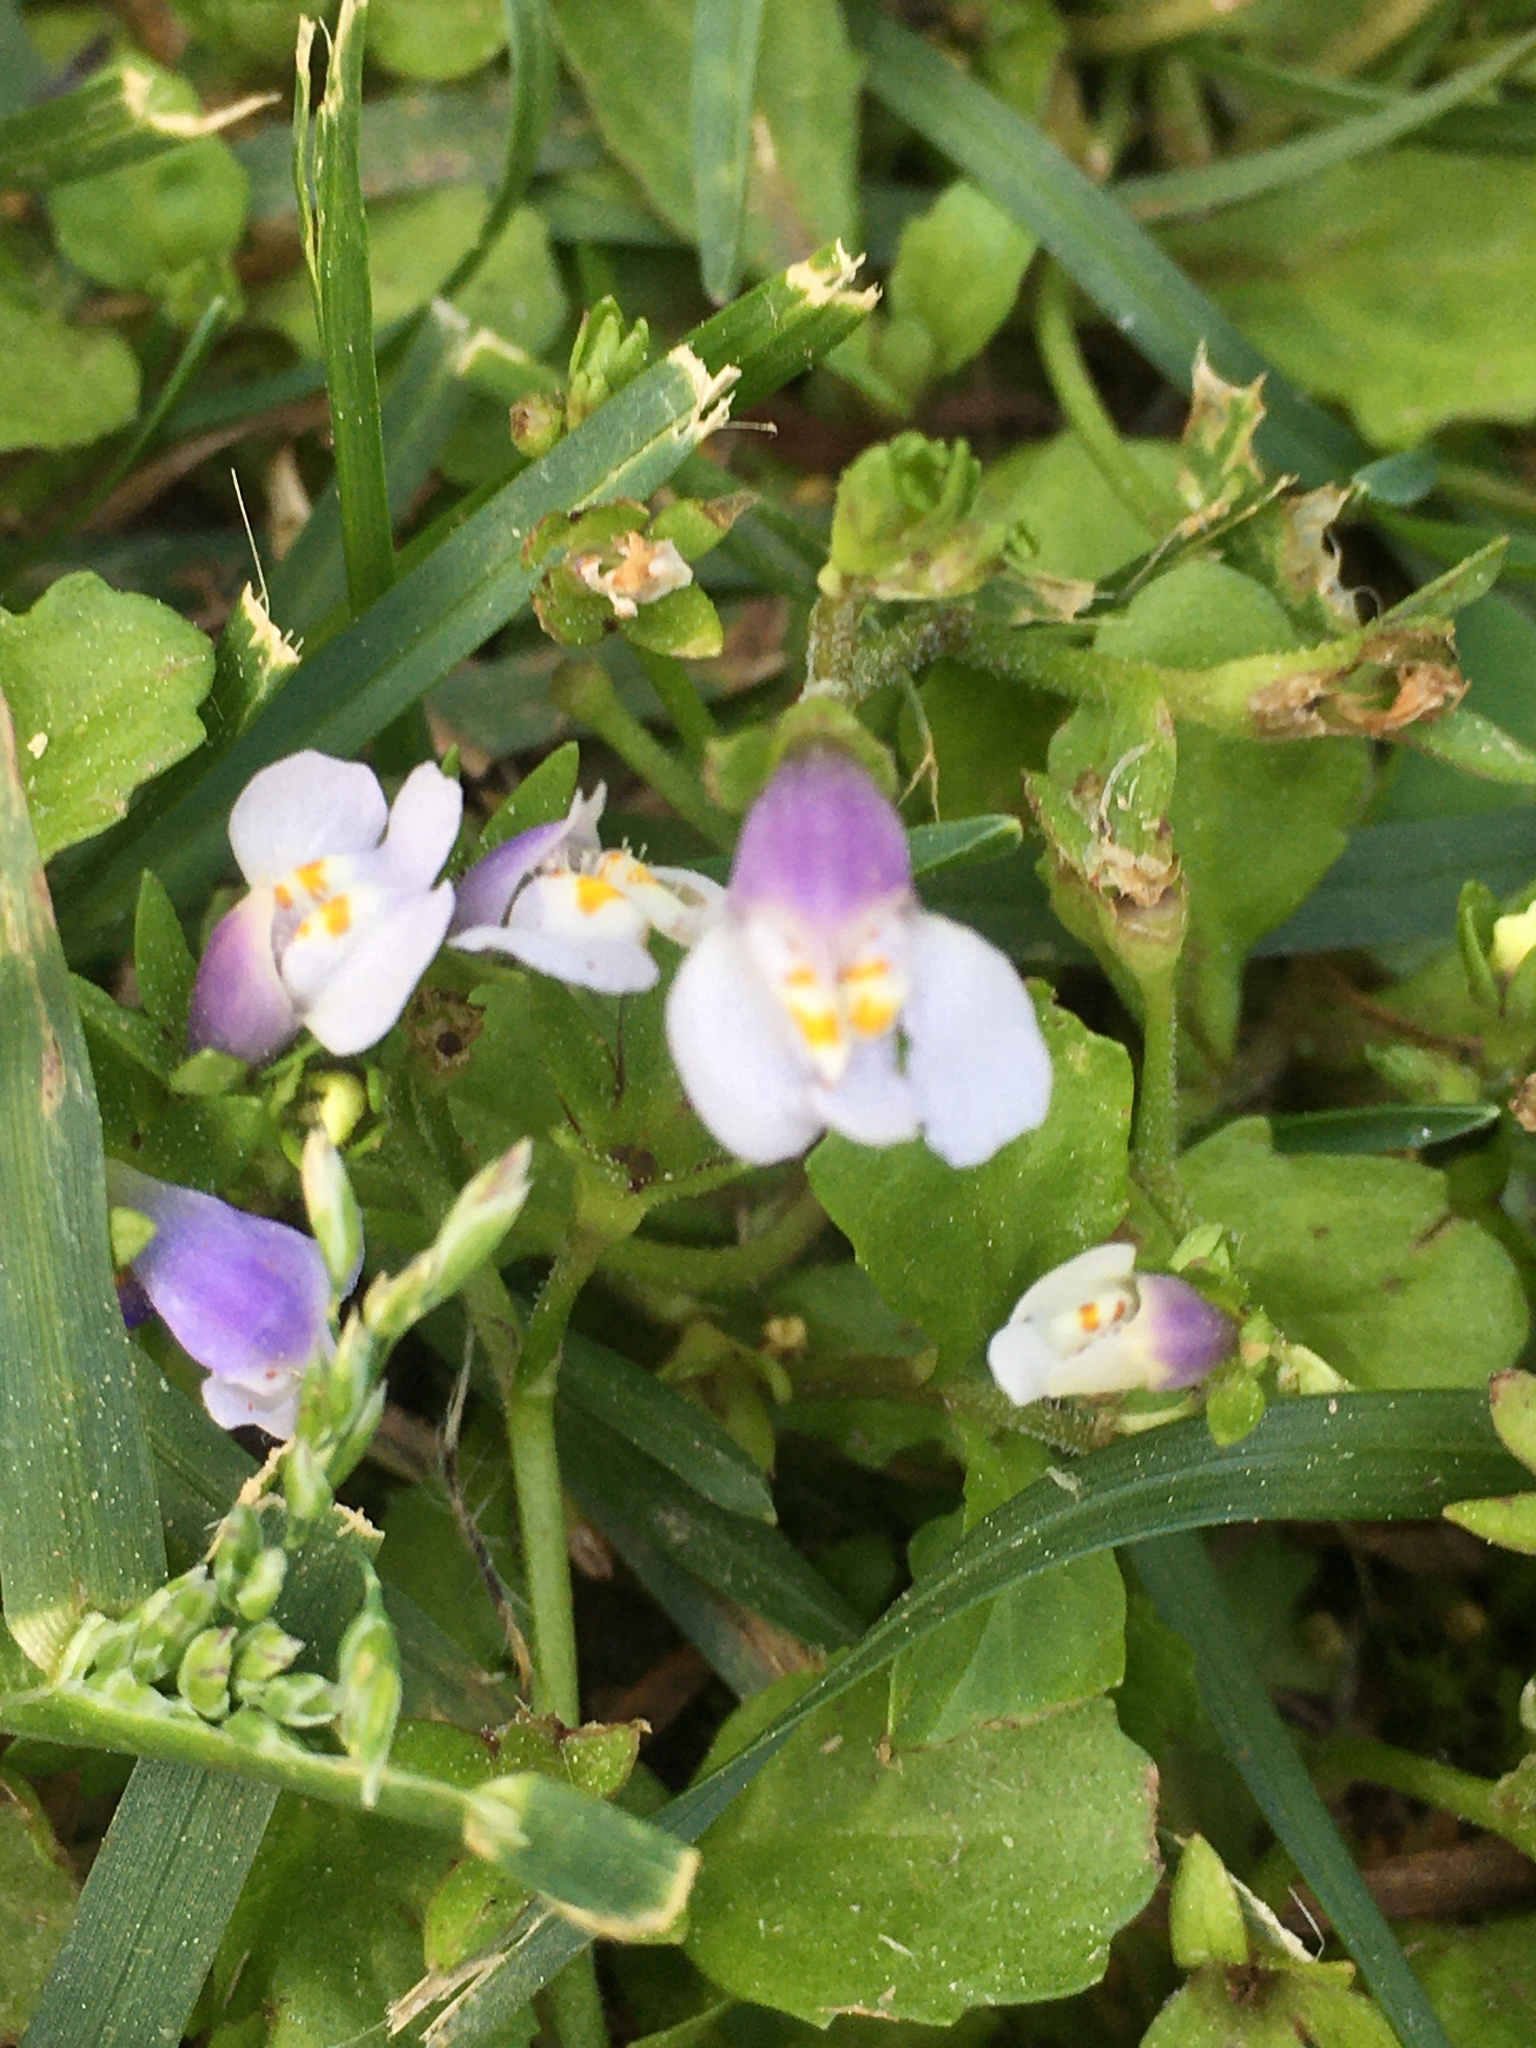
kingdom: Plantae
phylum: Tracheophyta
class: Magnoliopsida
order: Lamiales
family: Mazaceae
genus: Mazus
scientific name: Mazus pumilus
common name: Japanese mazus
